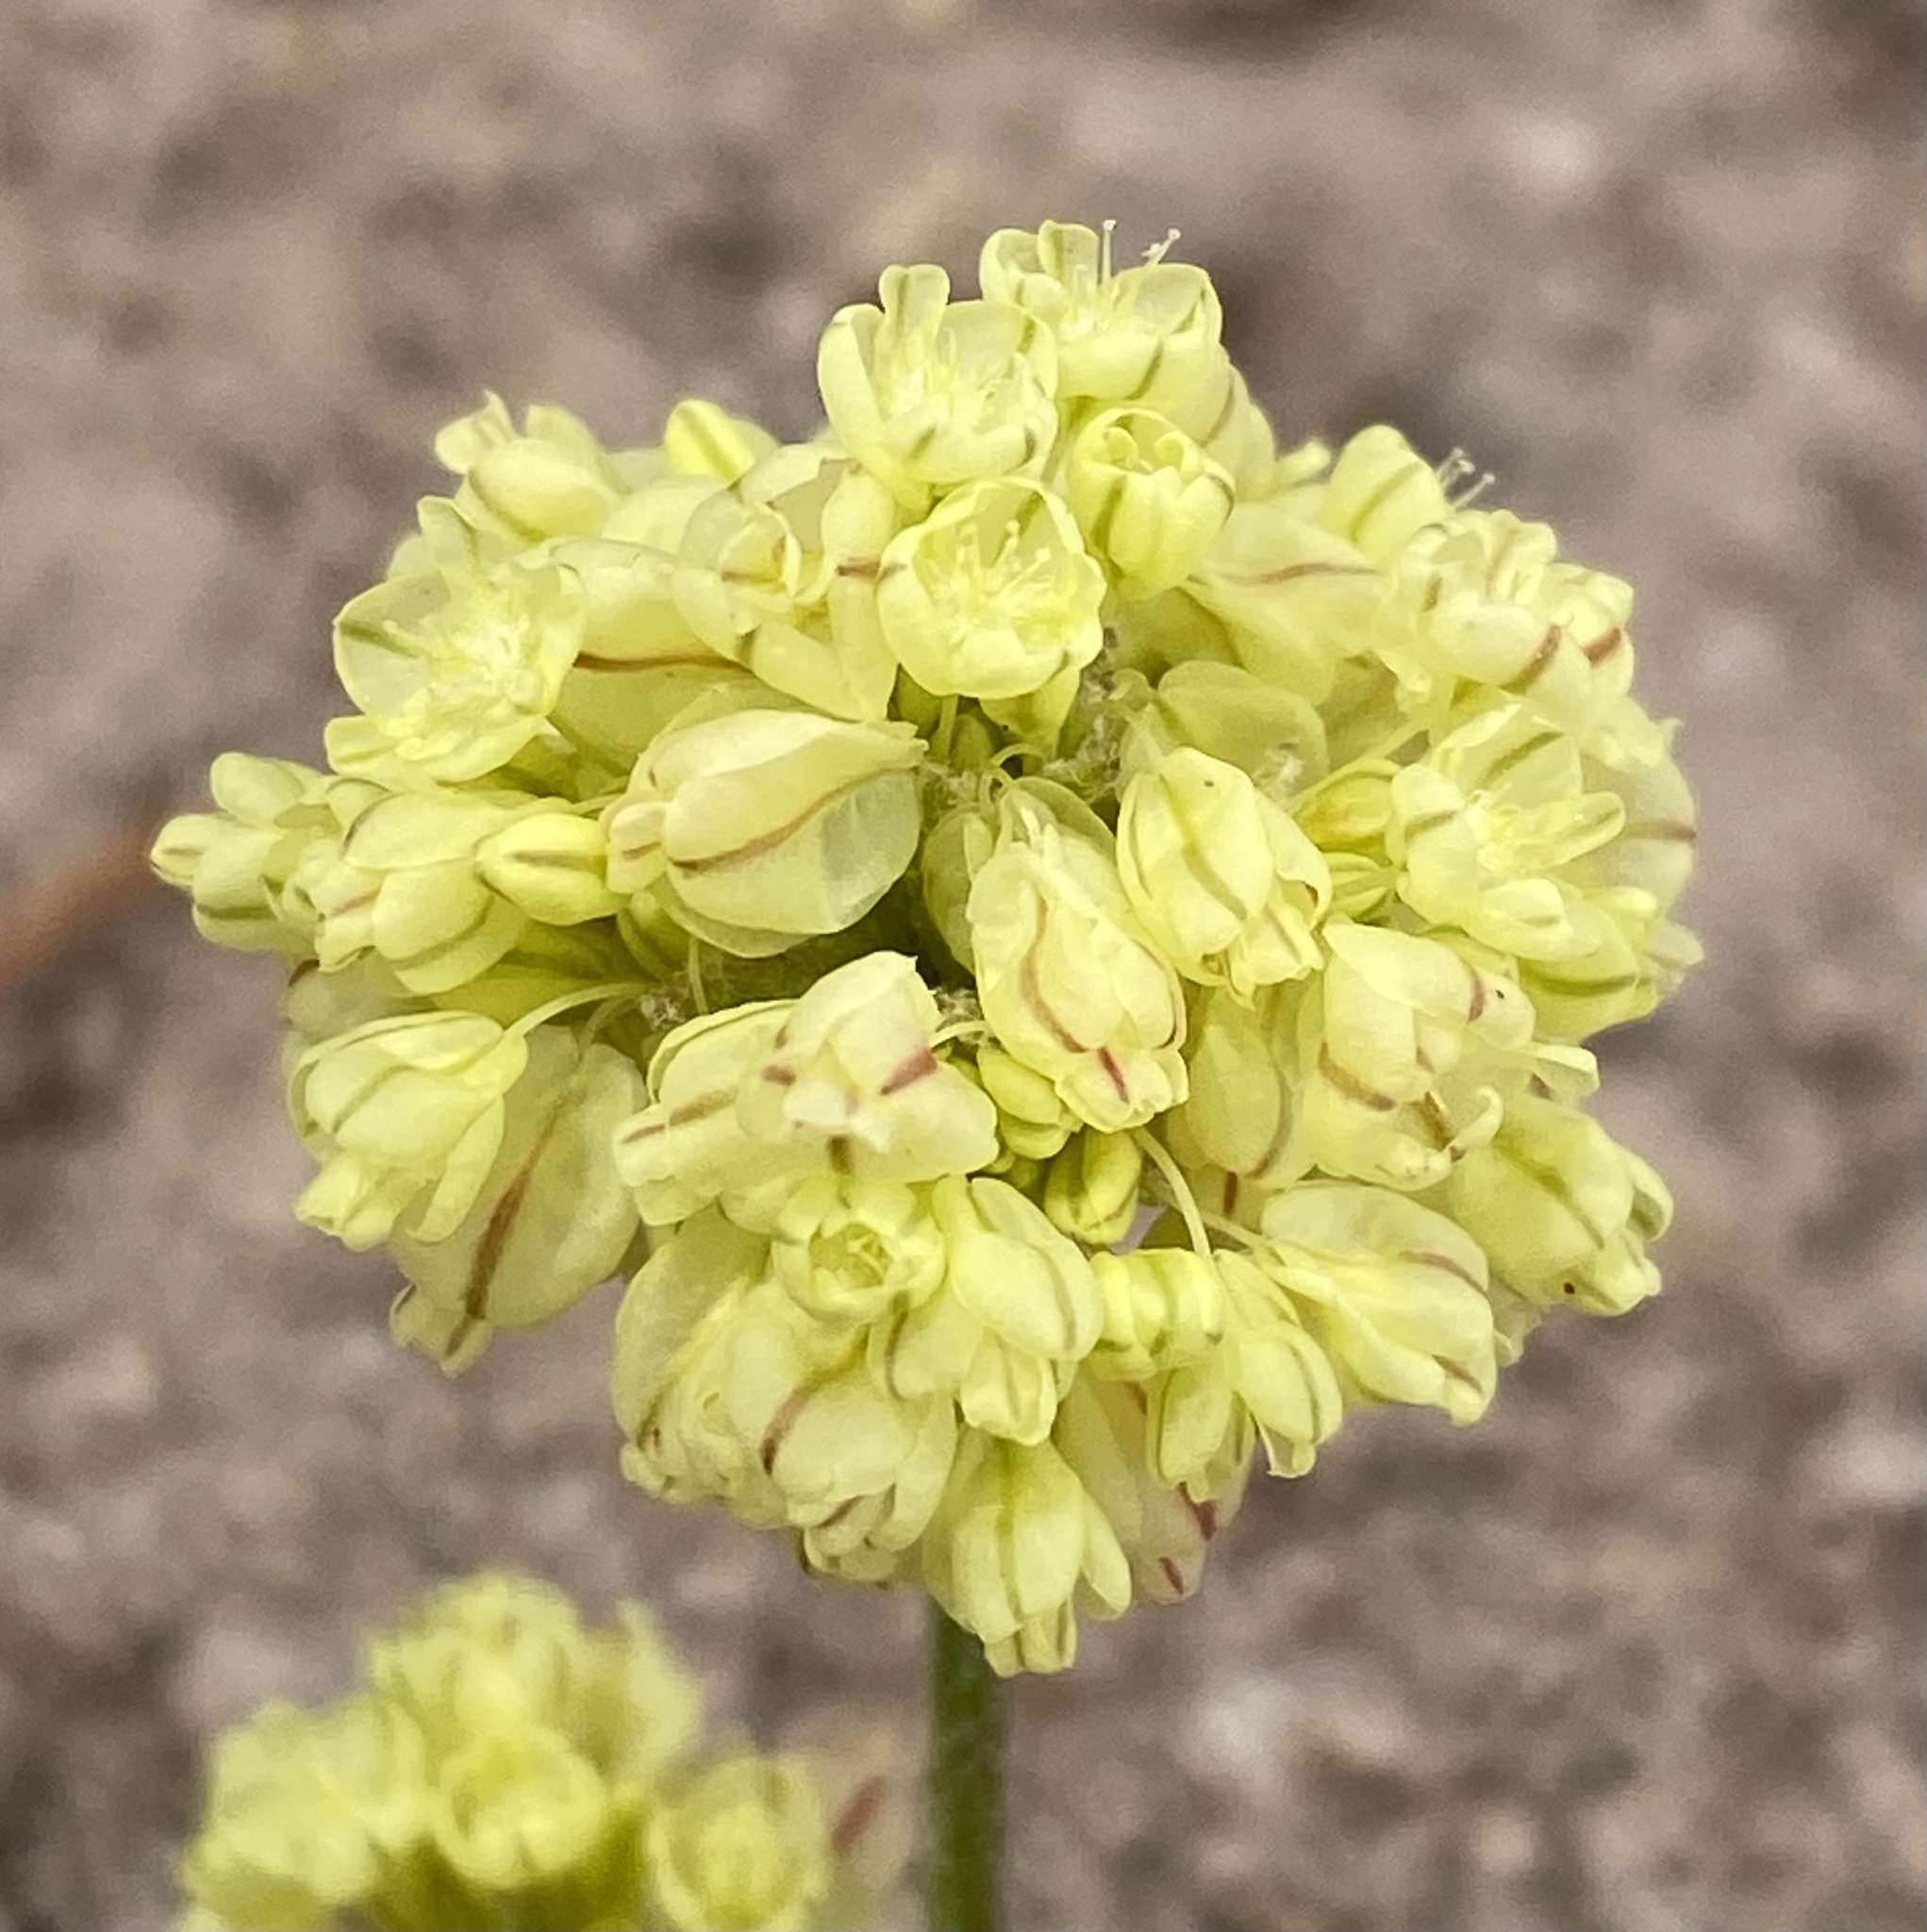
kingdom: Plantae
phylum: Tracheophyta
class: Magnoliopsida
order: Caryophyllales
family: Polygonaceae
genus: Eriogonum
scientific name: Eriogonum ovalifolium
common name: Cushion buckwheat
